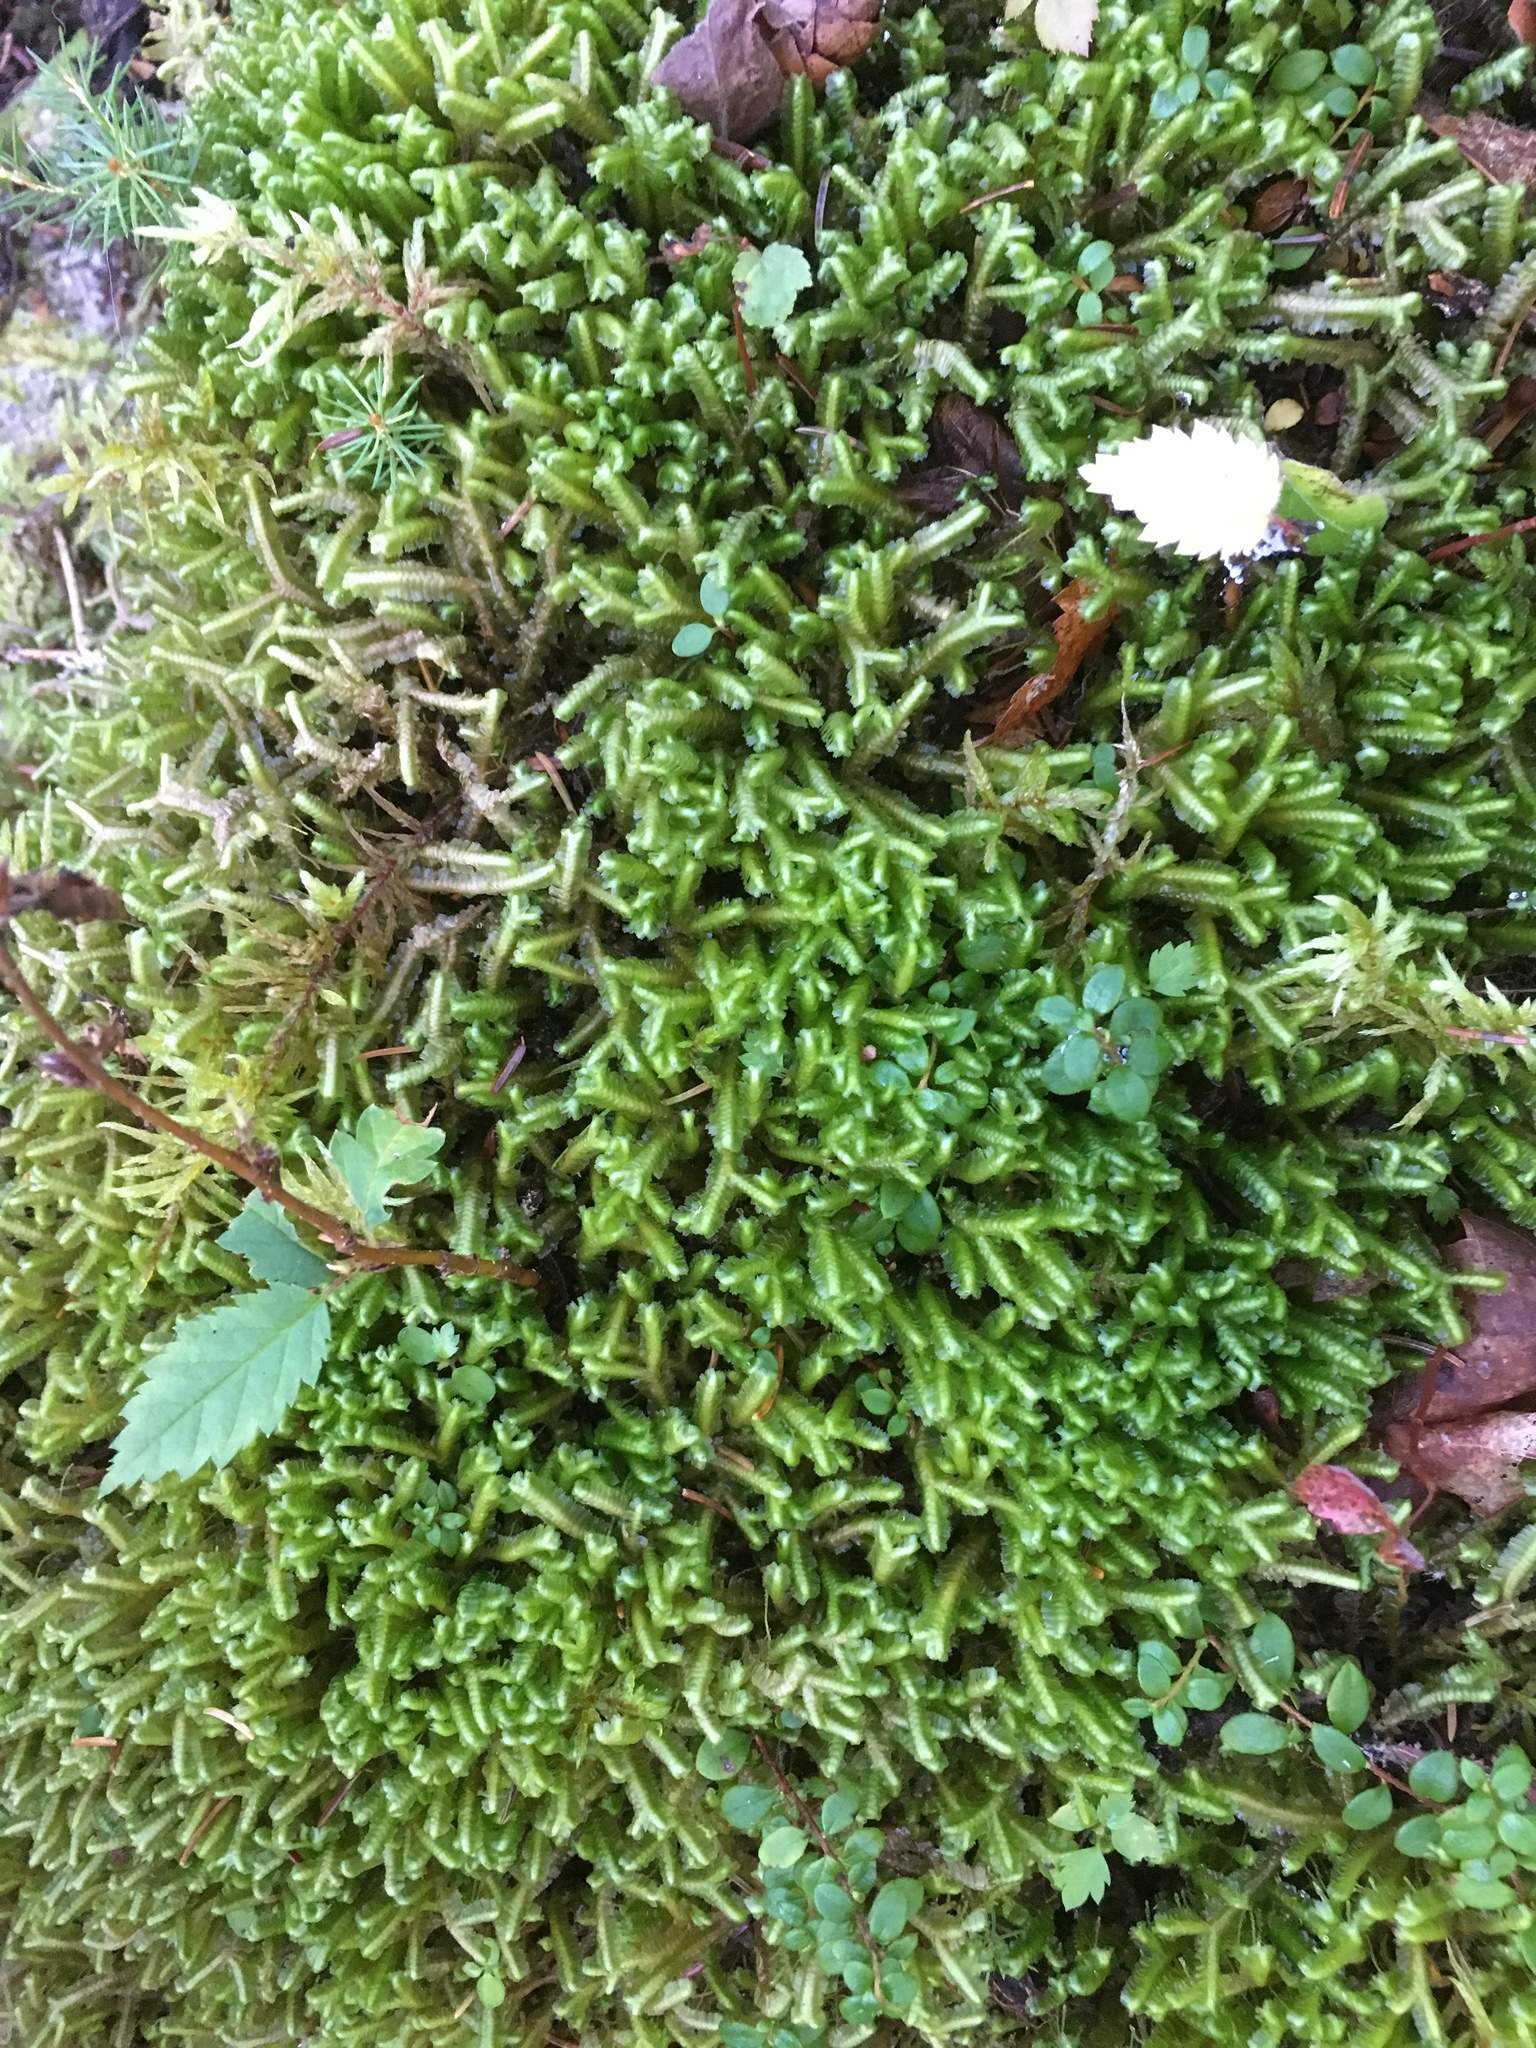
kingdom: Plantae
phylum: Marchantiophyta
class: Jungermanniopsida
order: Jungermanniales
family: Lepidoziaceae
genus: Bazzania
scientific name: Bazzania trilobata
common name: Three-lobed whipwort
